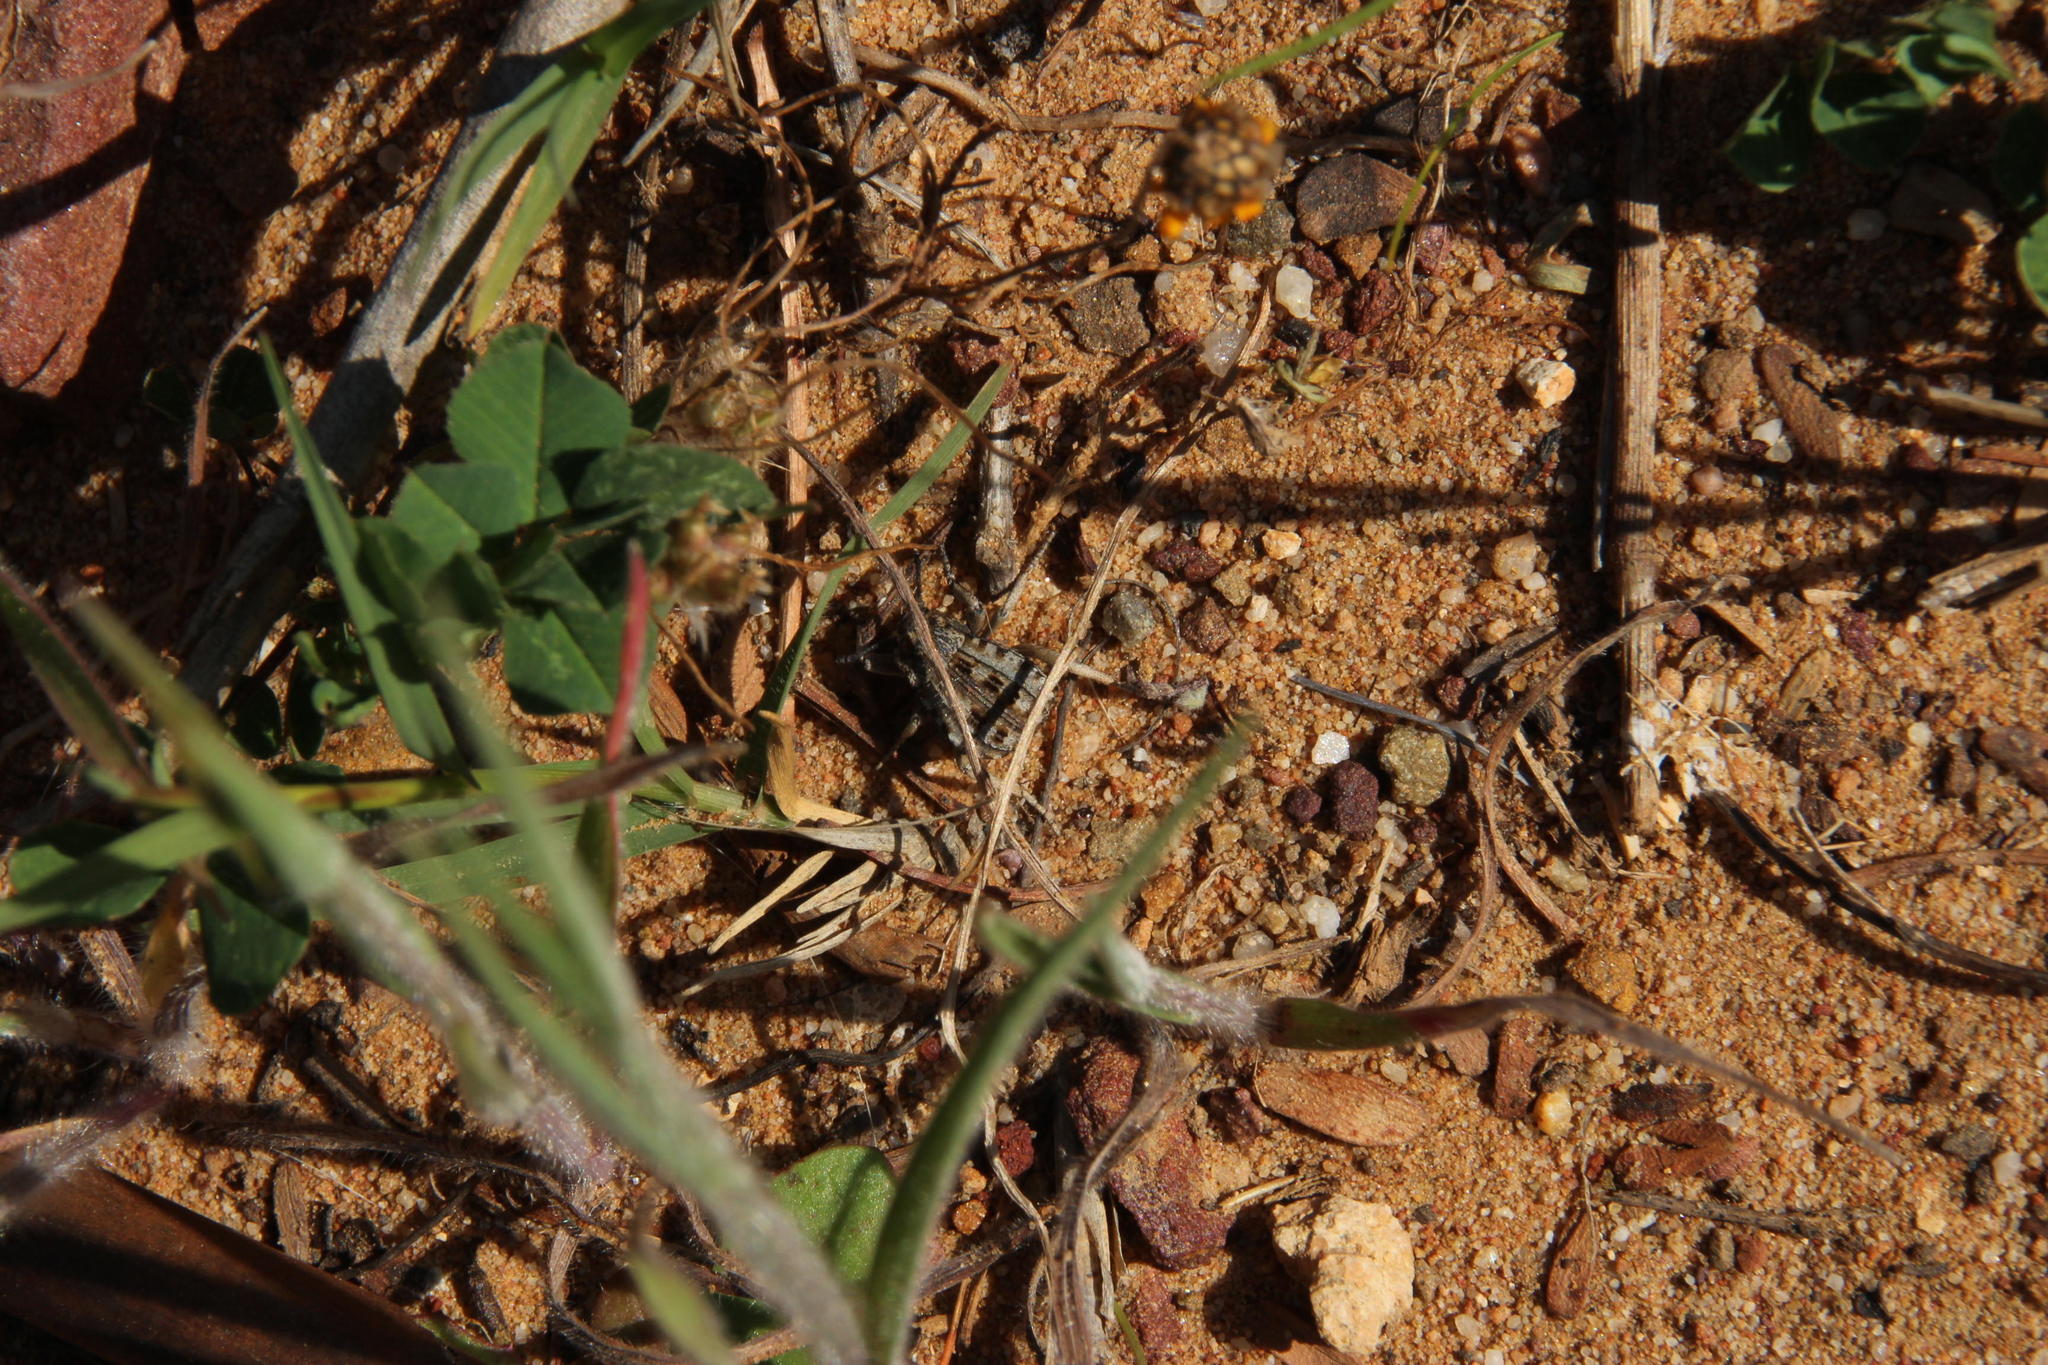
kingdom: Animalia
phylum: Arthropoda
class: Insecta
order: Coleoptera
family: Tenebrionidae
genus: Cryptochile
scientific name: Cryptochile
